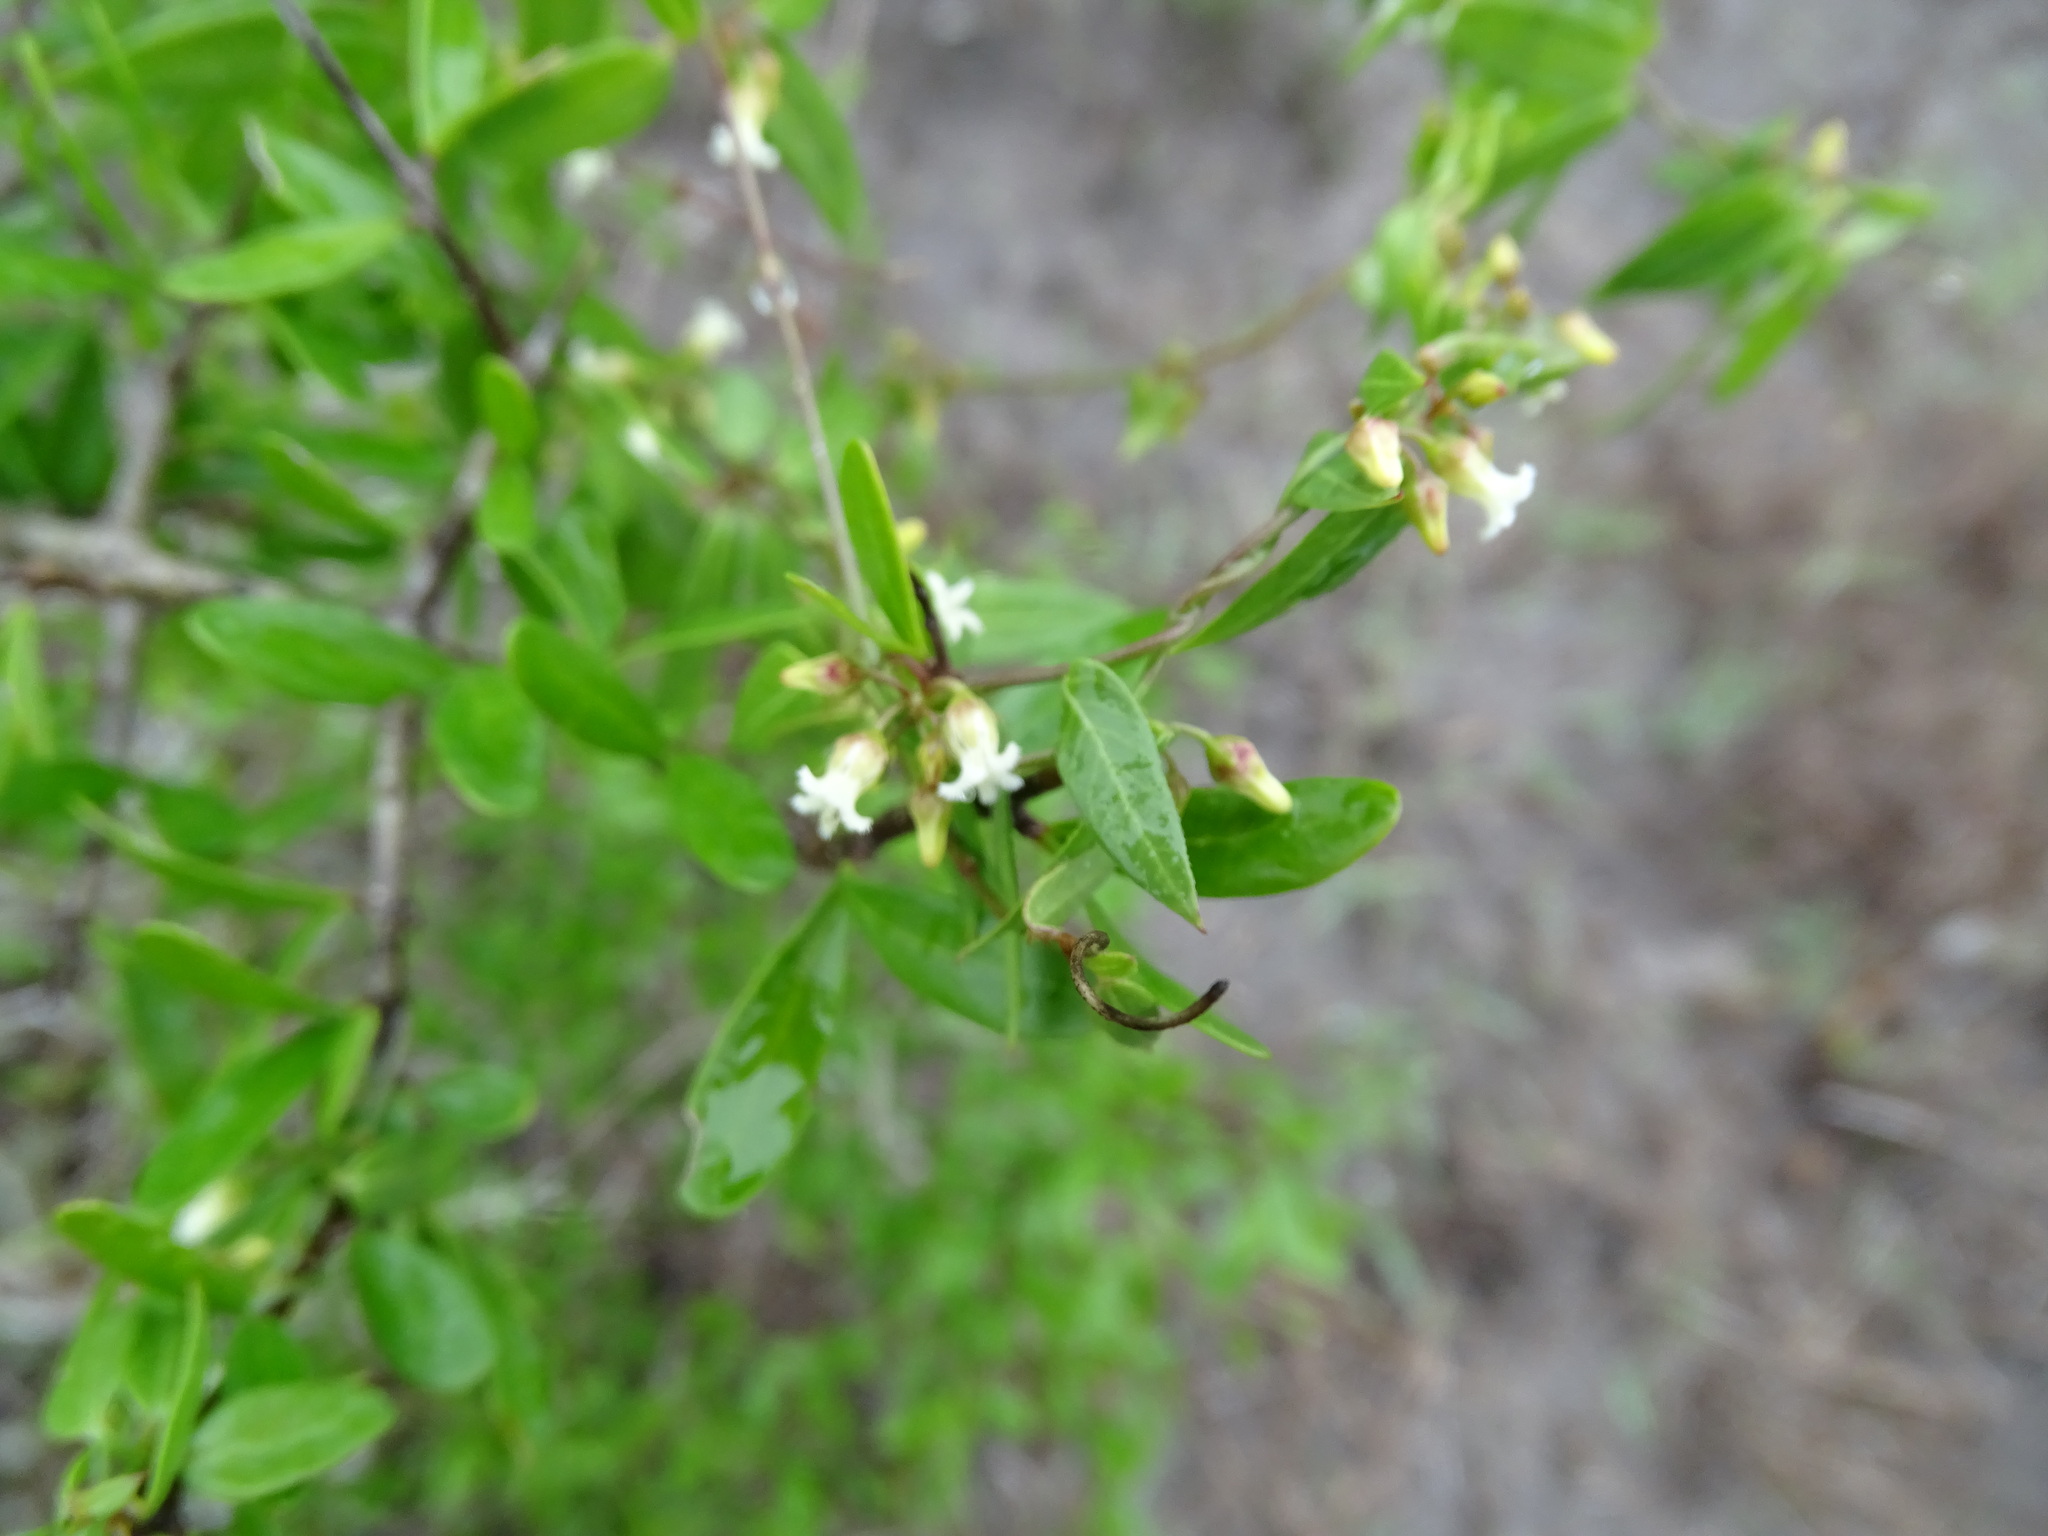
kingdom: Plantae
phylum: Tracheophyta
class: Magnoliopsida
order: Gentianales
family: Apocynaceae
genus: Metastelma
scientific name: Metastelma barbigerum
